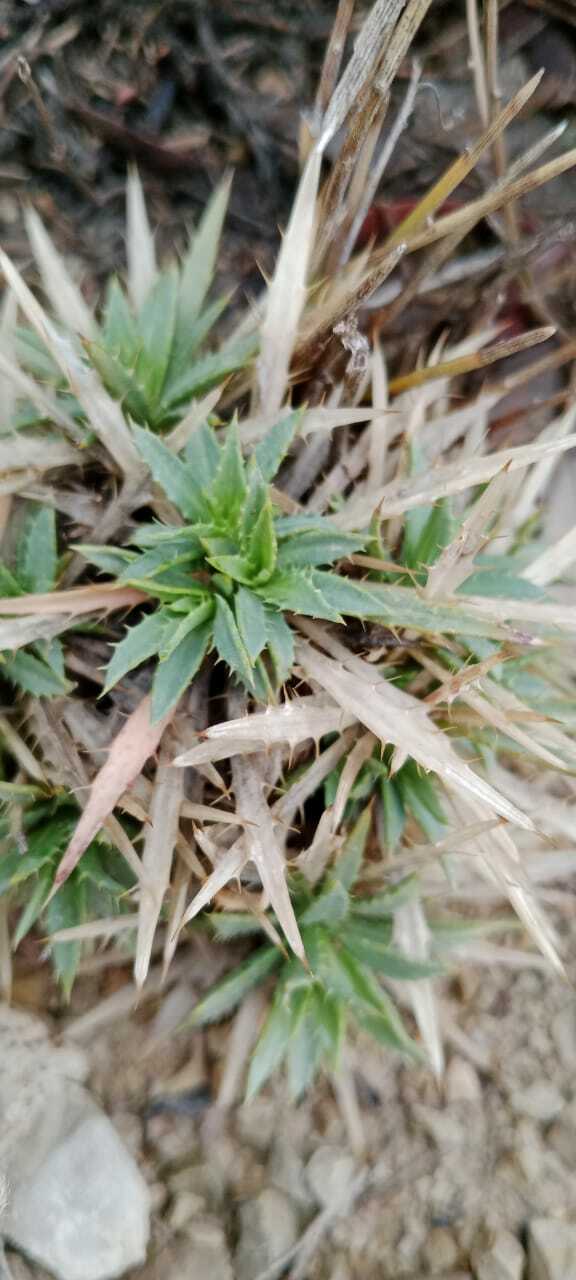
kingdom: Plantae
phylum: Tracheophyta
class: Magnoliopsida
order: Asterales
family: Asteraceae
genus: Atractylis
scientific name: Atractylis caespitosa
